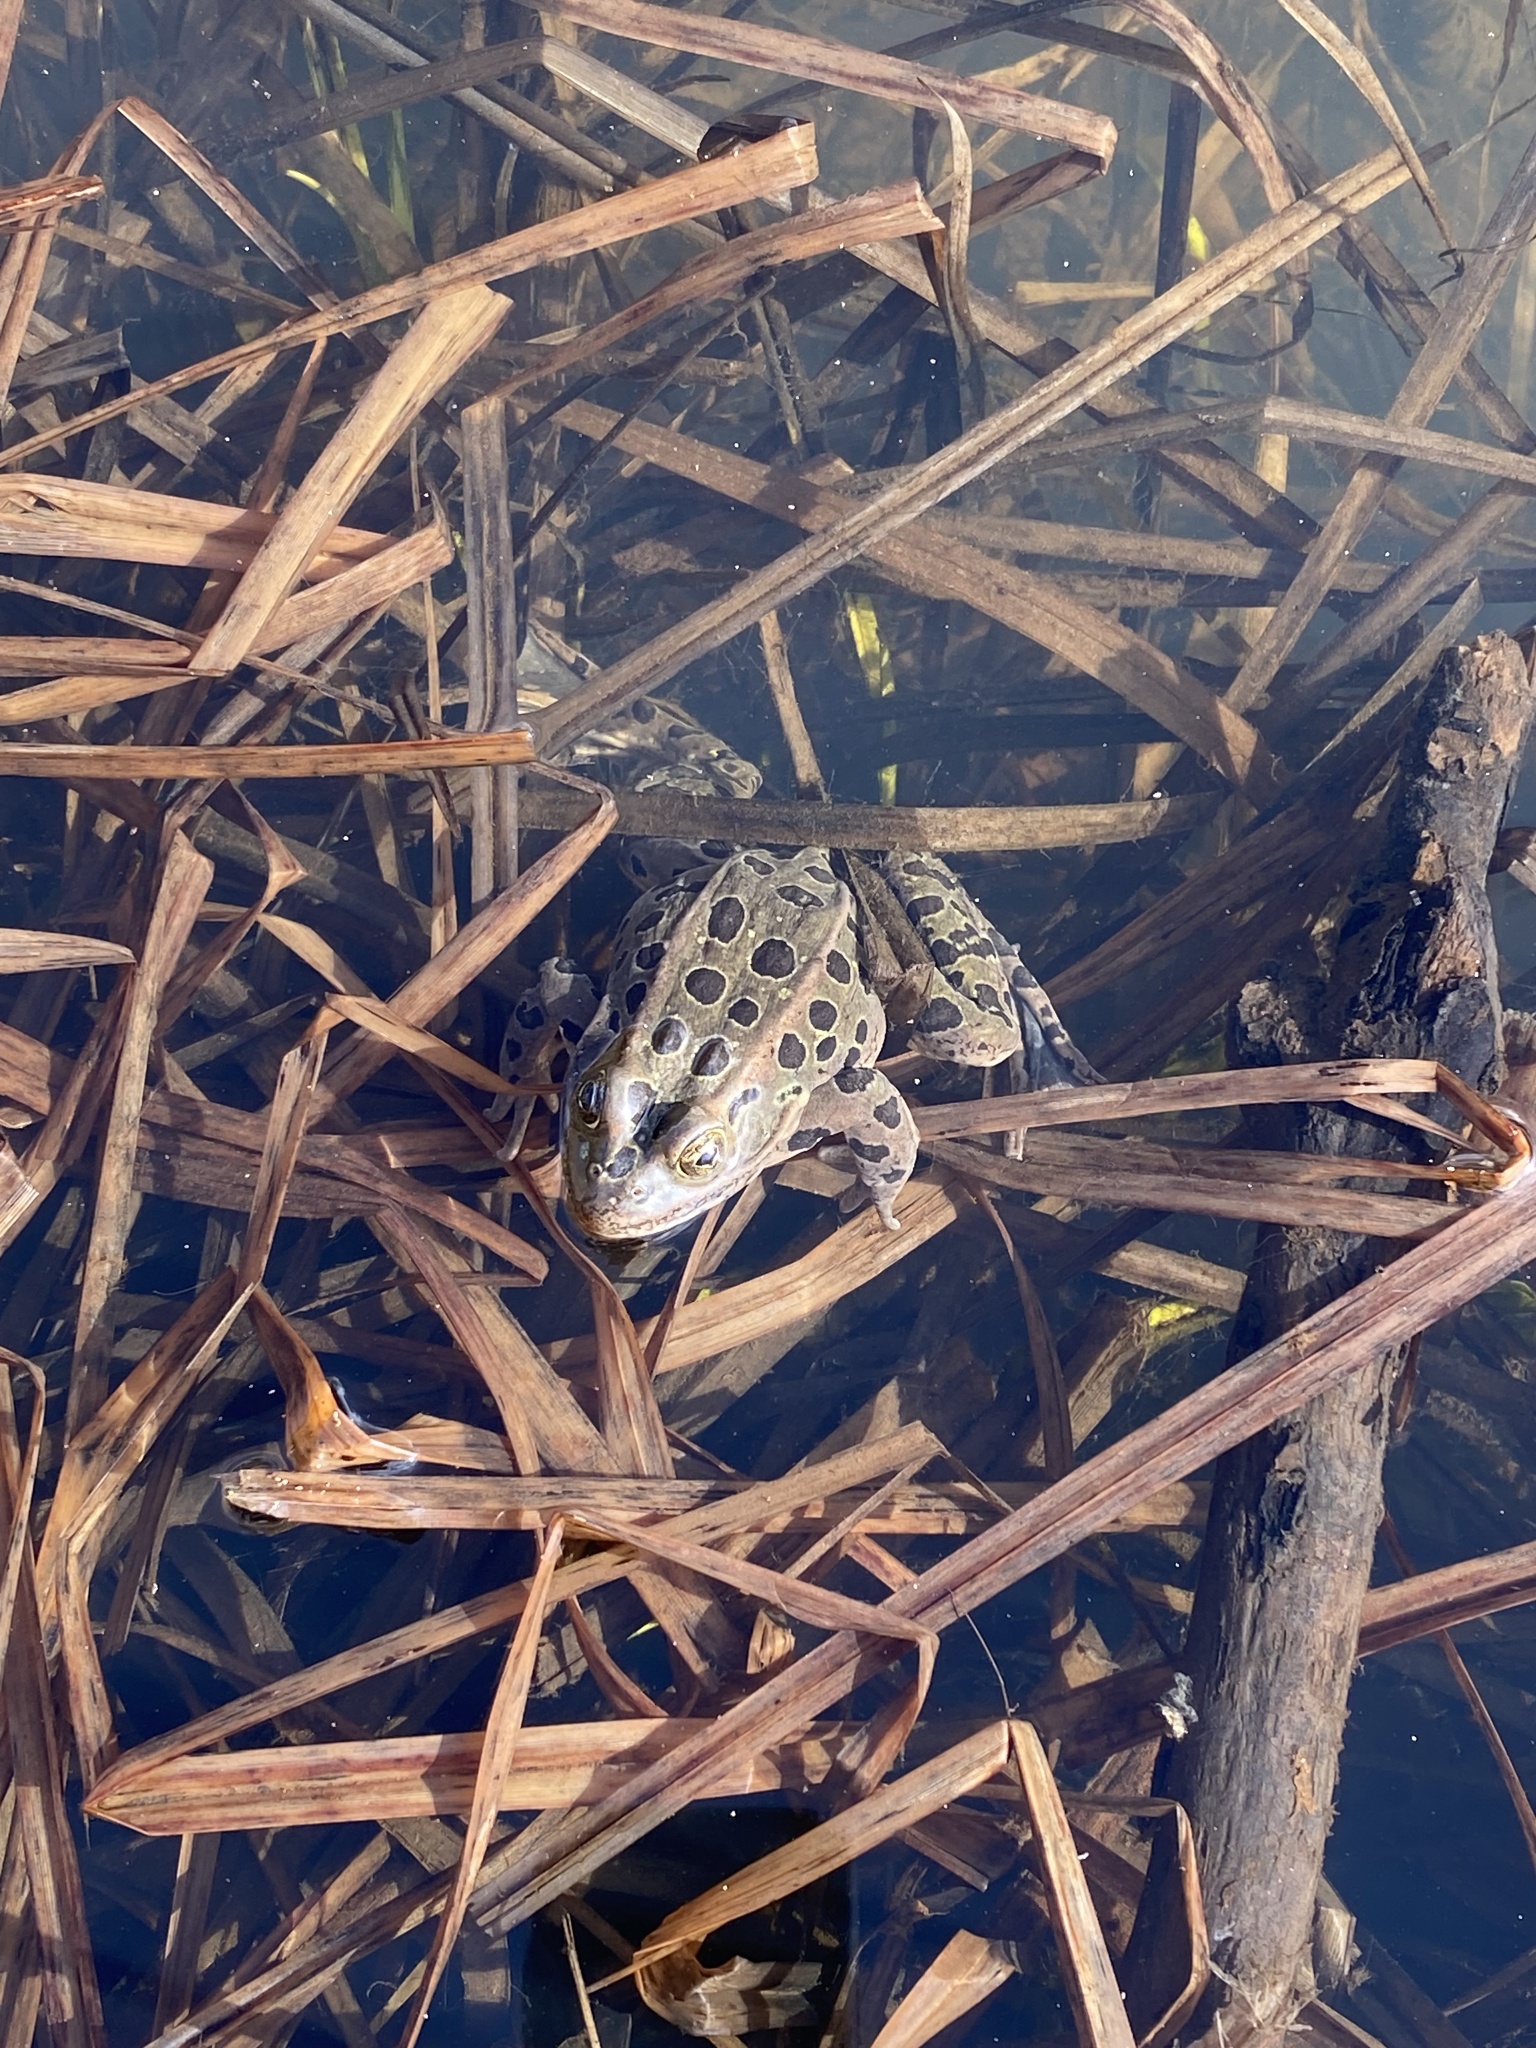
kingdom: Animalia
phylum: Chordata
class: Amphibia
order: Anura
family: Ranidae
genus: Lithobates
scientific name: Lithobates pipiens
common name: Northern leopard frog
